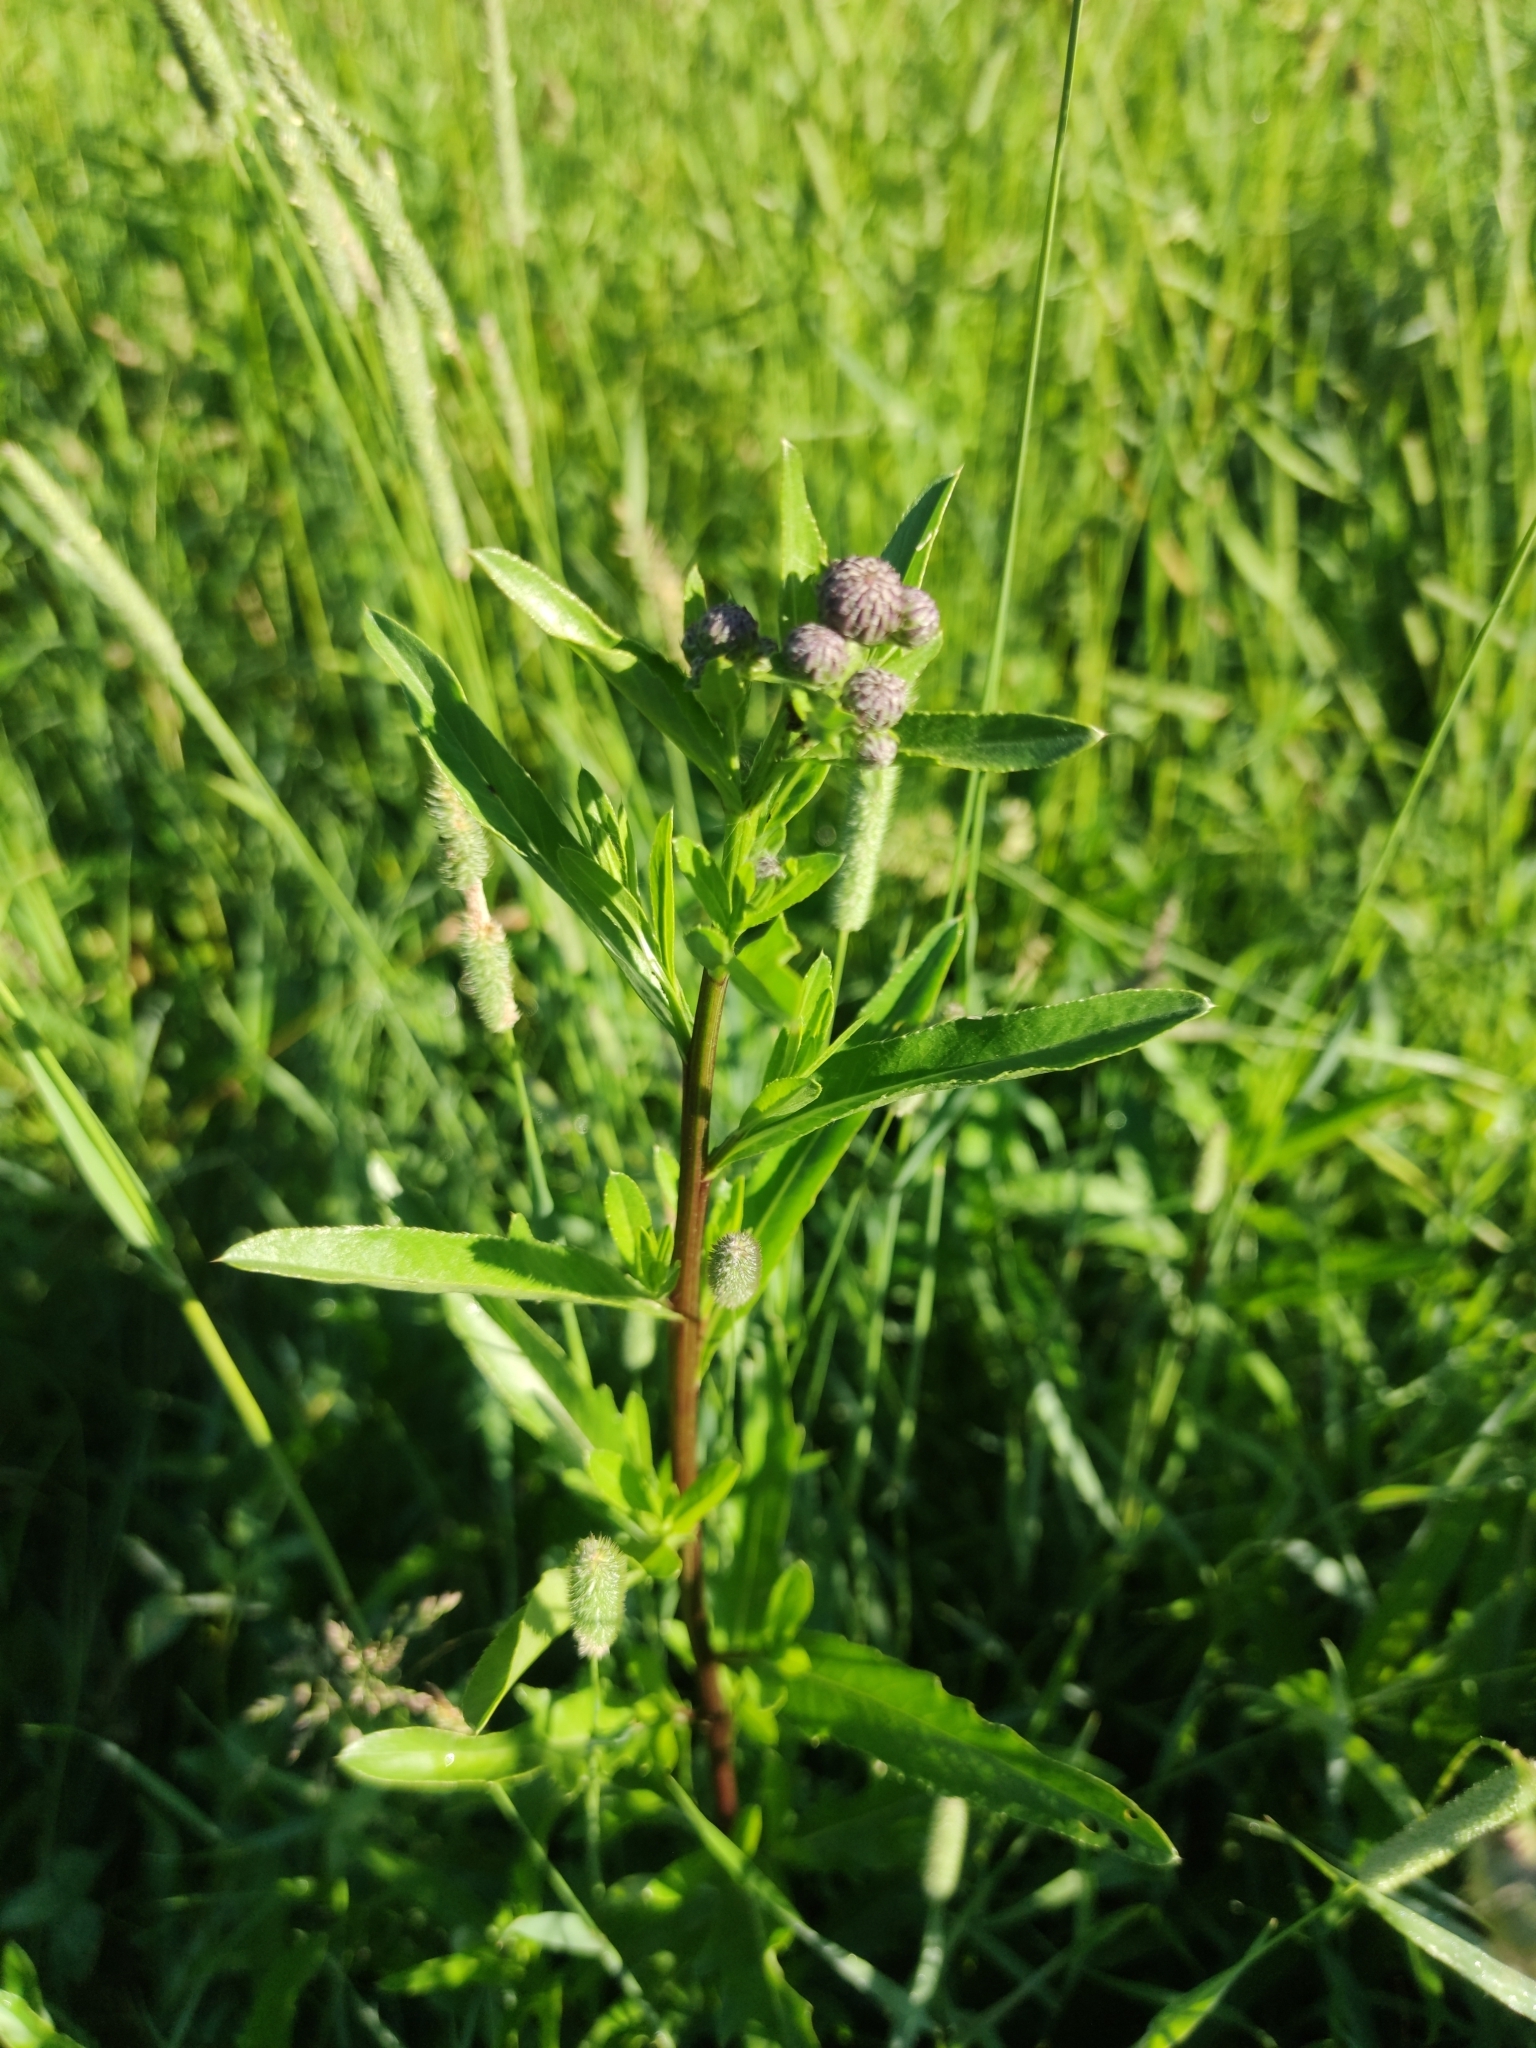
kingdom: Plantae
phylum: Tracheophyta
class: Magnoliopsida
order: Asterales
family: Asteraceae
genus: Cirsium
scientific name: Cirsium arvense
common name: Creeping thistle
